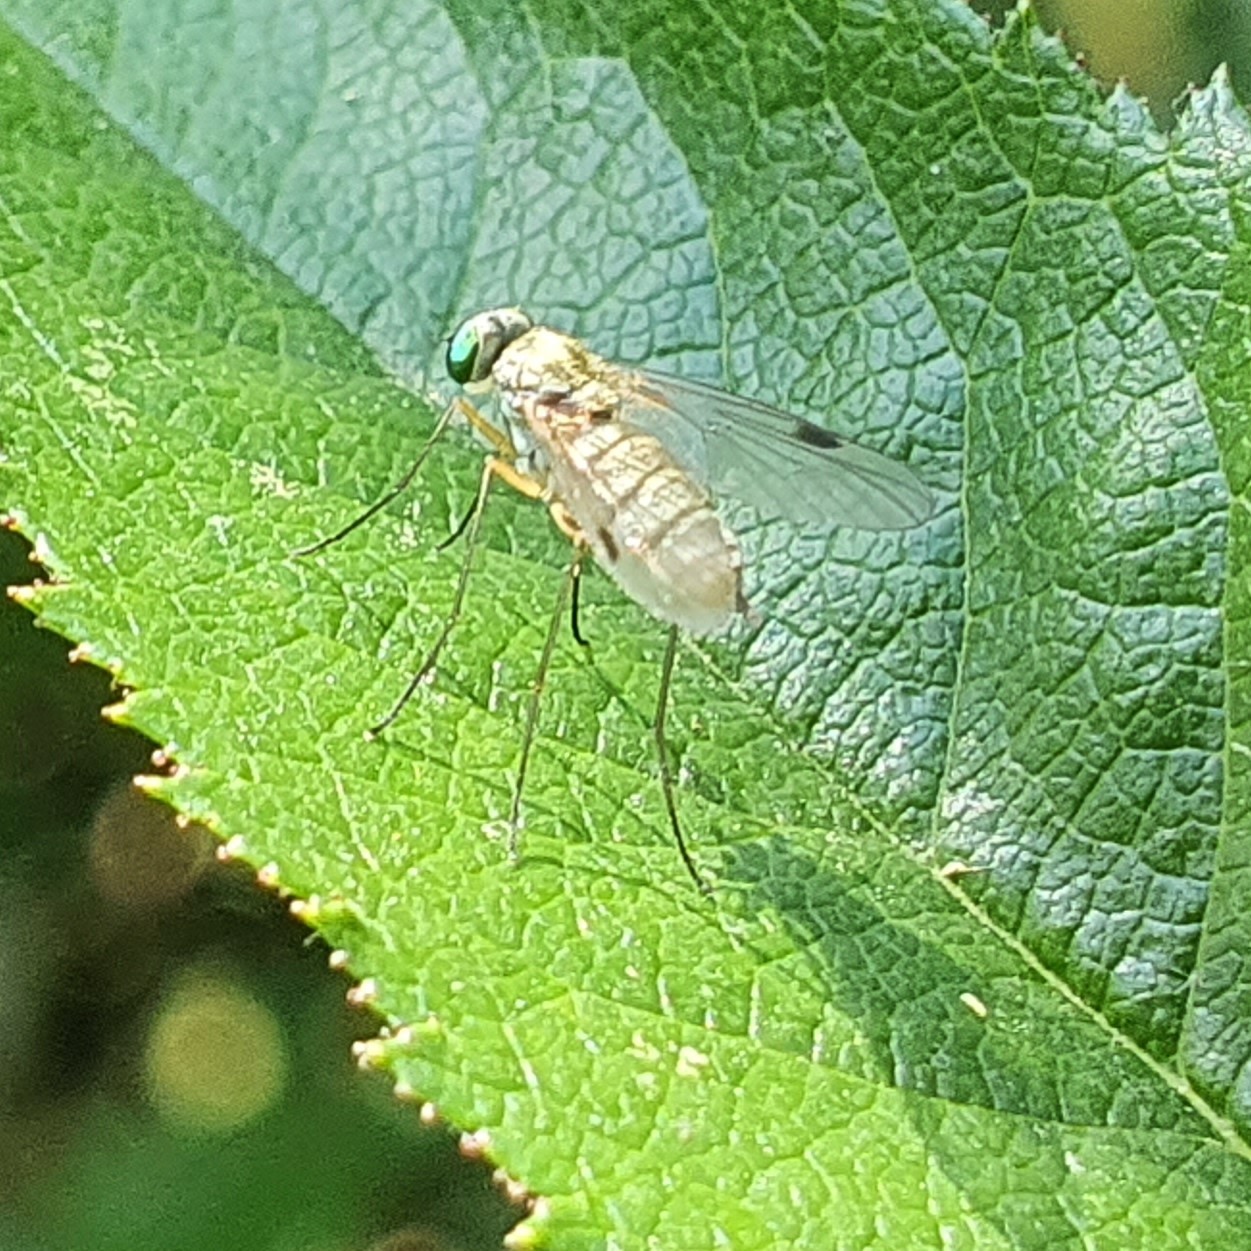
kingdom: Animalia
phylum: Arthropoda
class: Insecta
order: Diptera
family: Rhagionidae
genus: Chrysopilus
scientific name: Chrysopilus asiliformis
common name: Little snipefly
